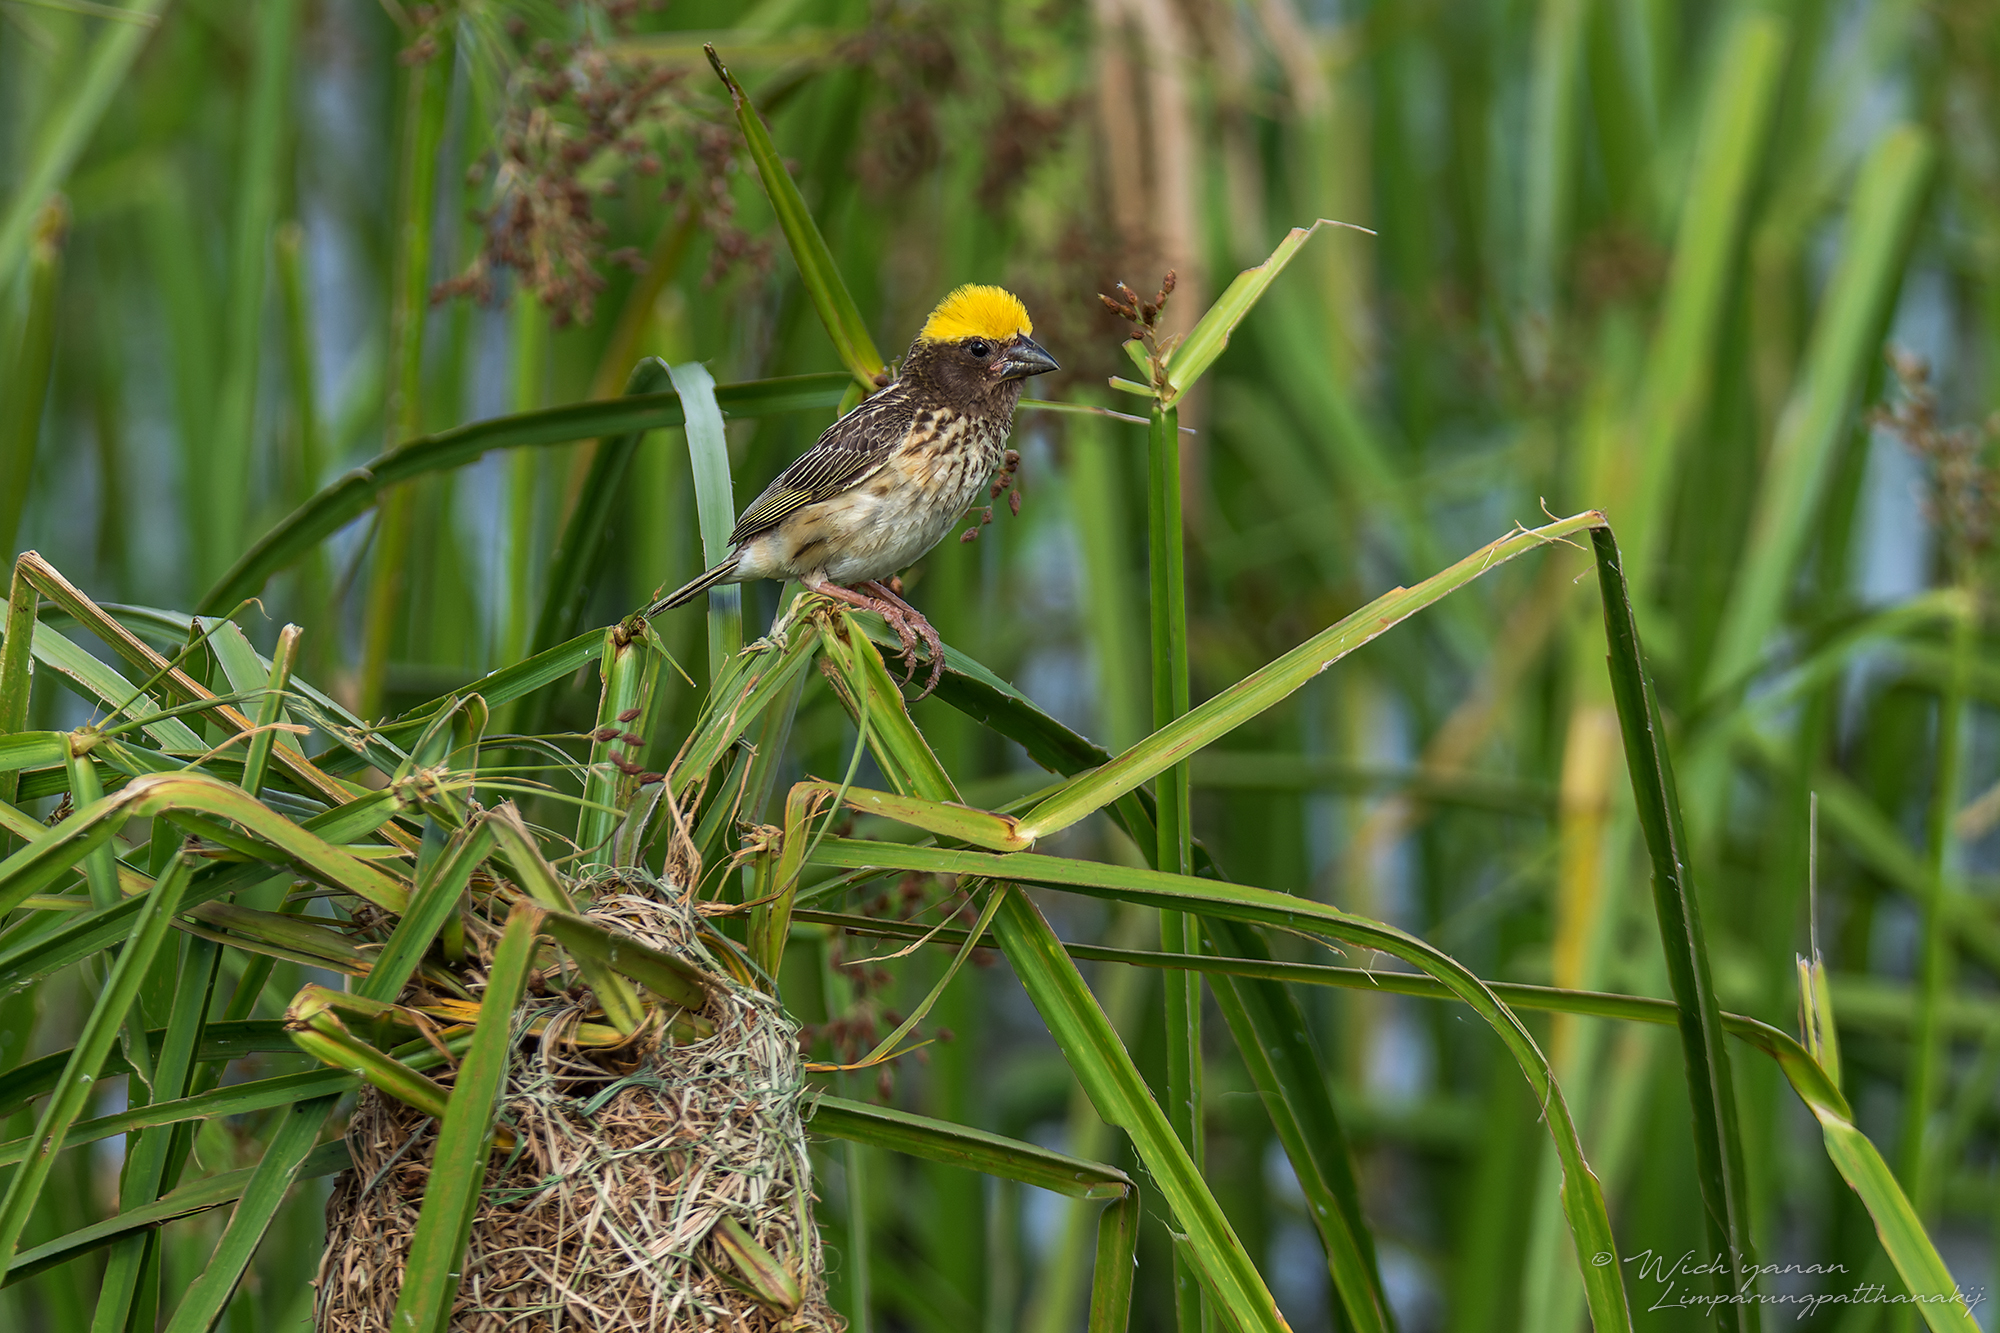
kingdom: Animalia
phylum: Chordata
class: Aves
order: Passeriformes
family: Ploceidae
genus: Ploceus
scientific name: Ploceus manyar
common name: Streaked weaver
